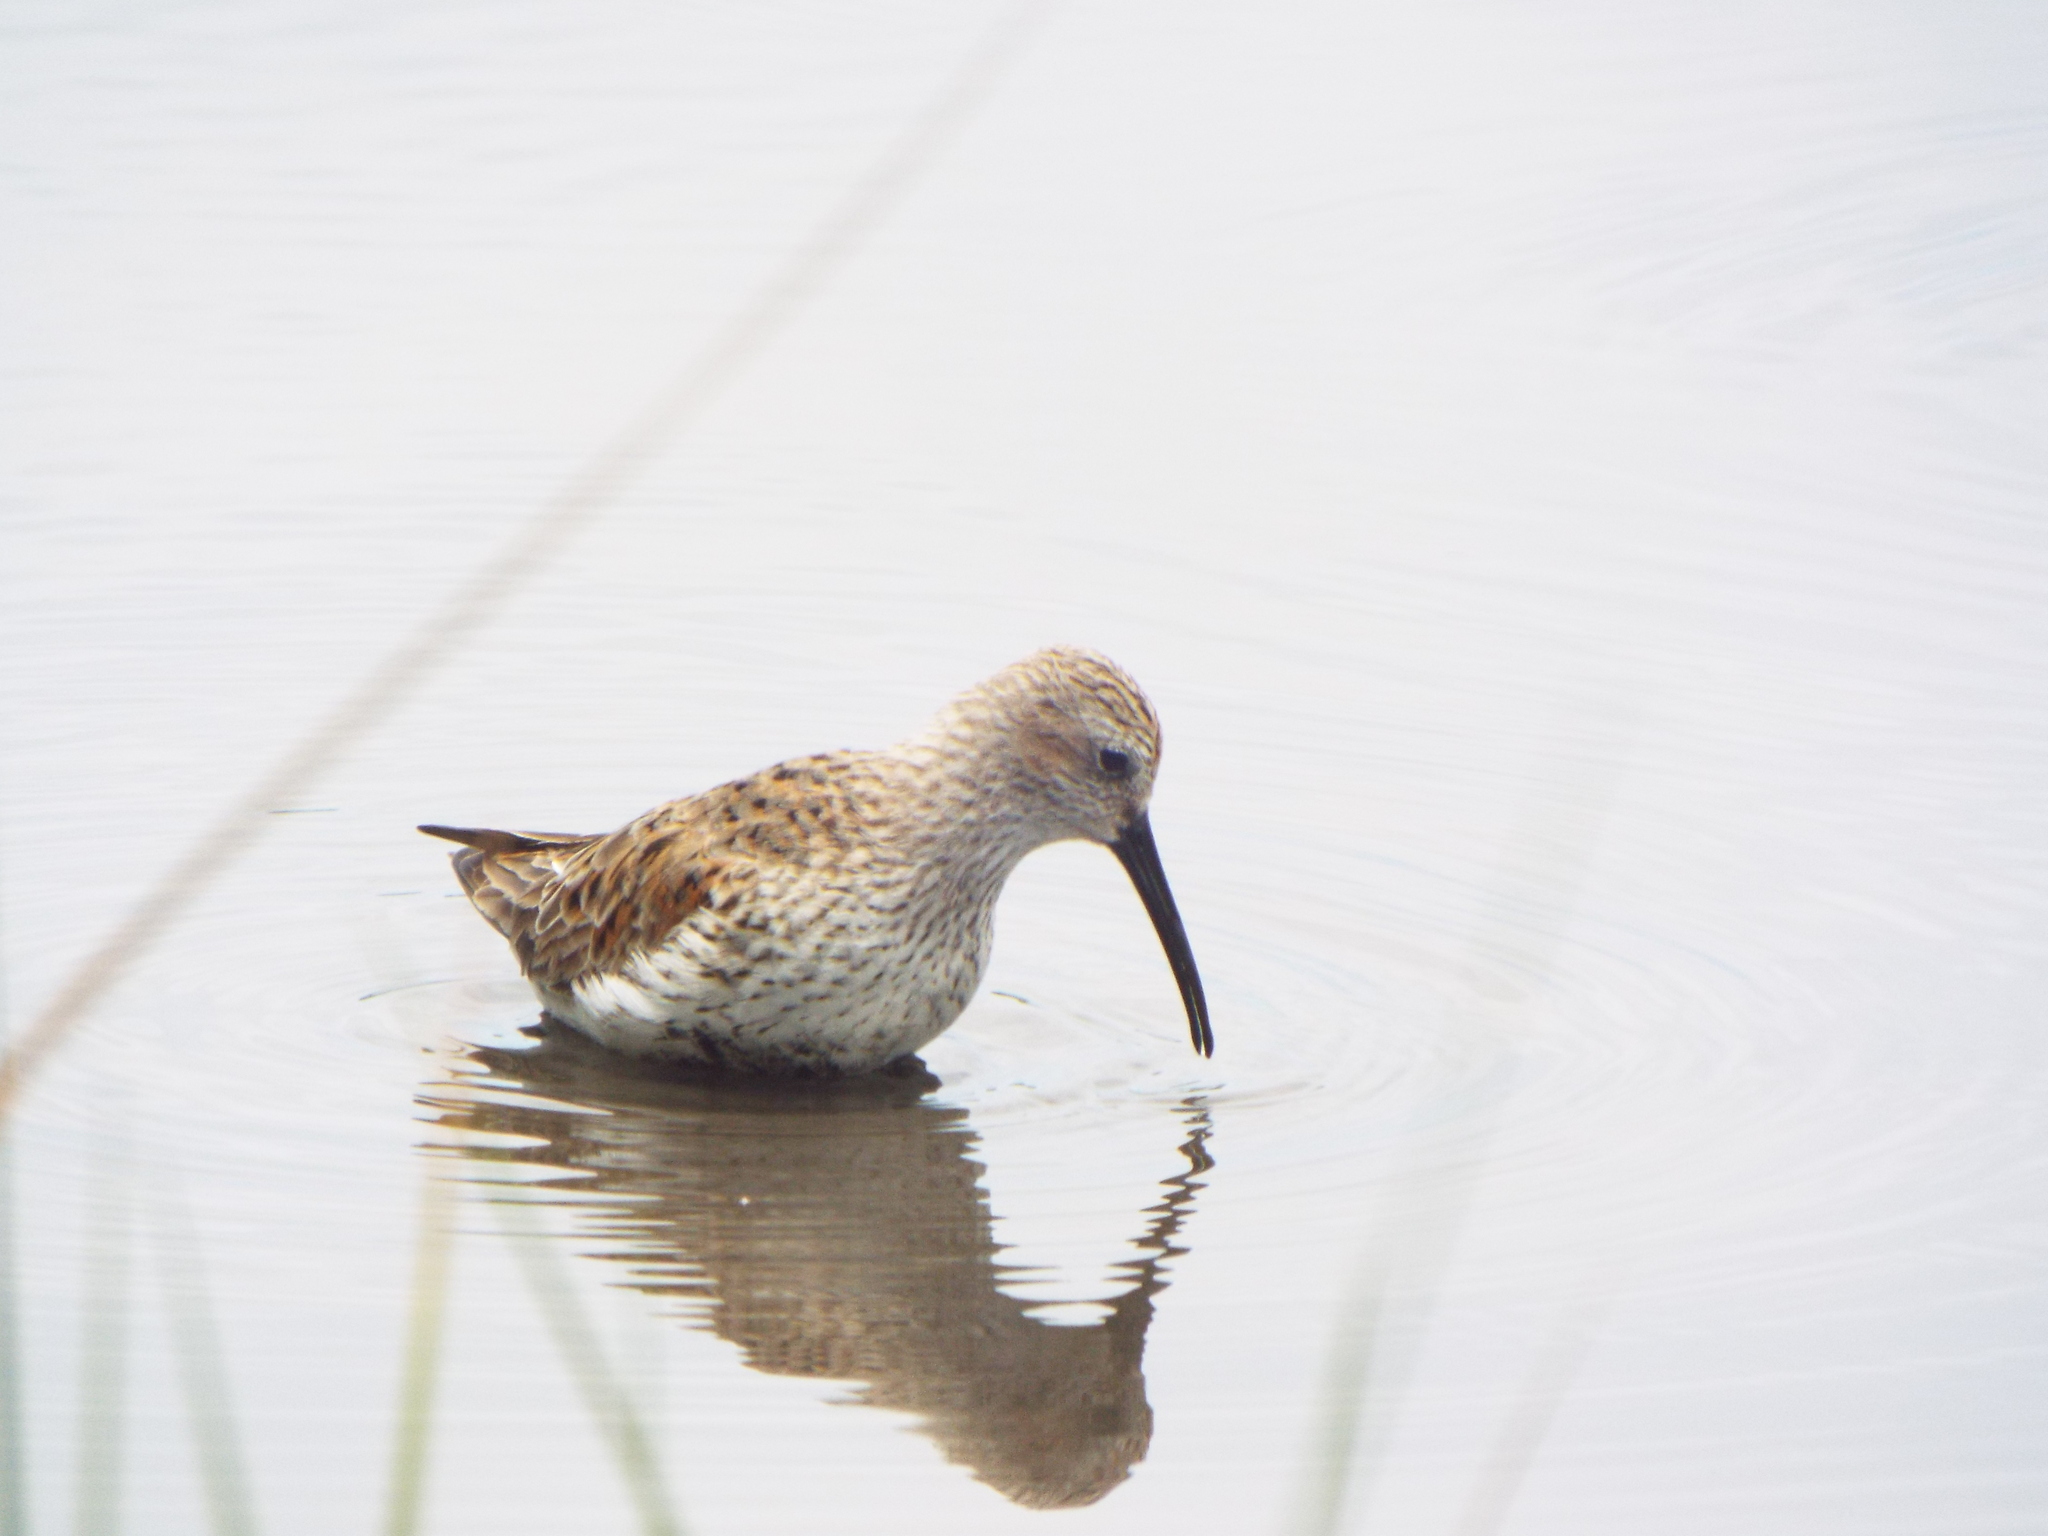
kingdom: Animalia
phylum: Chordata
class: Aves
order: Charadriiformes
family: Scolopacidae
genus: Calidris
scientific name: Calidris alpina
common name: Dunlin
